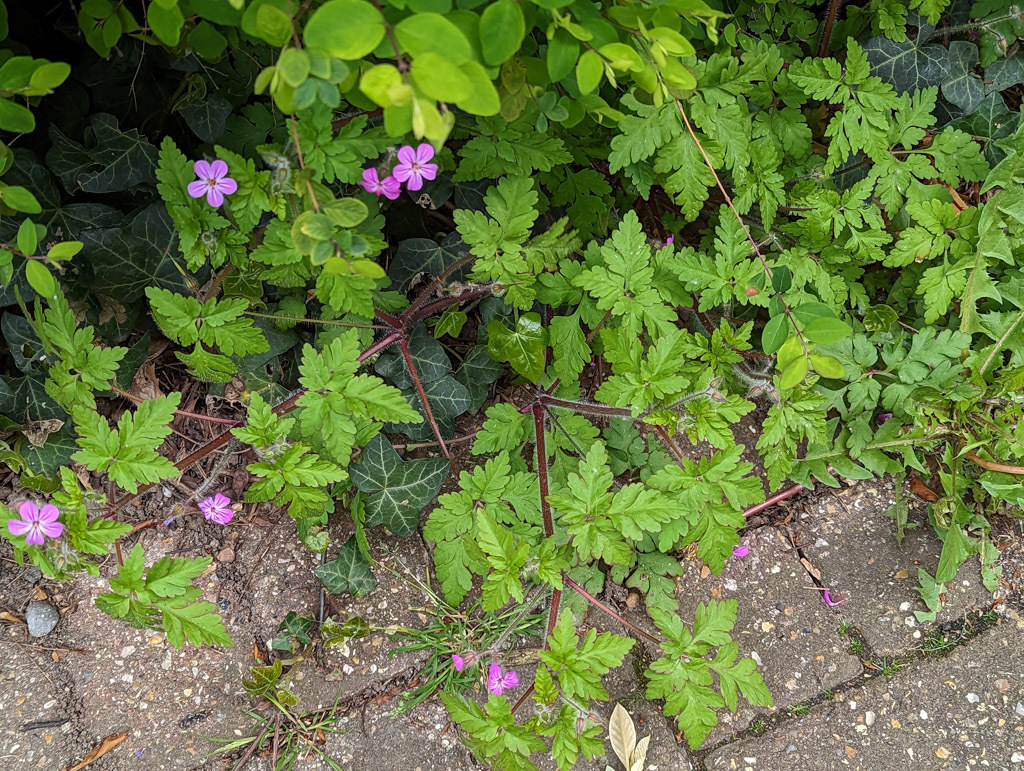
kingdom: Plantae
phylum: Tracheophyta
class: Magnoliopsida
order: Geraniales
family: Geraniaceae
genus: Geranium
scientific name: Geranium robertianum
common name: Herb-robert
